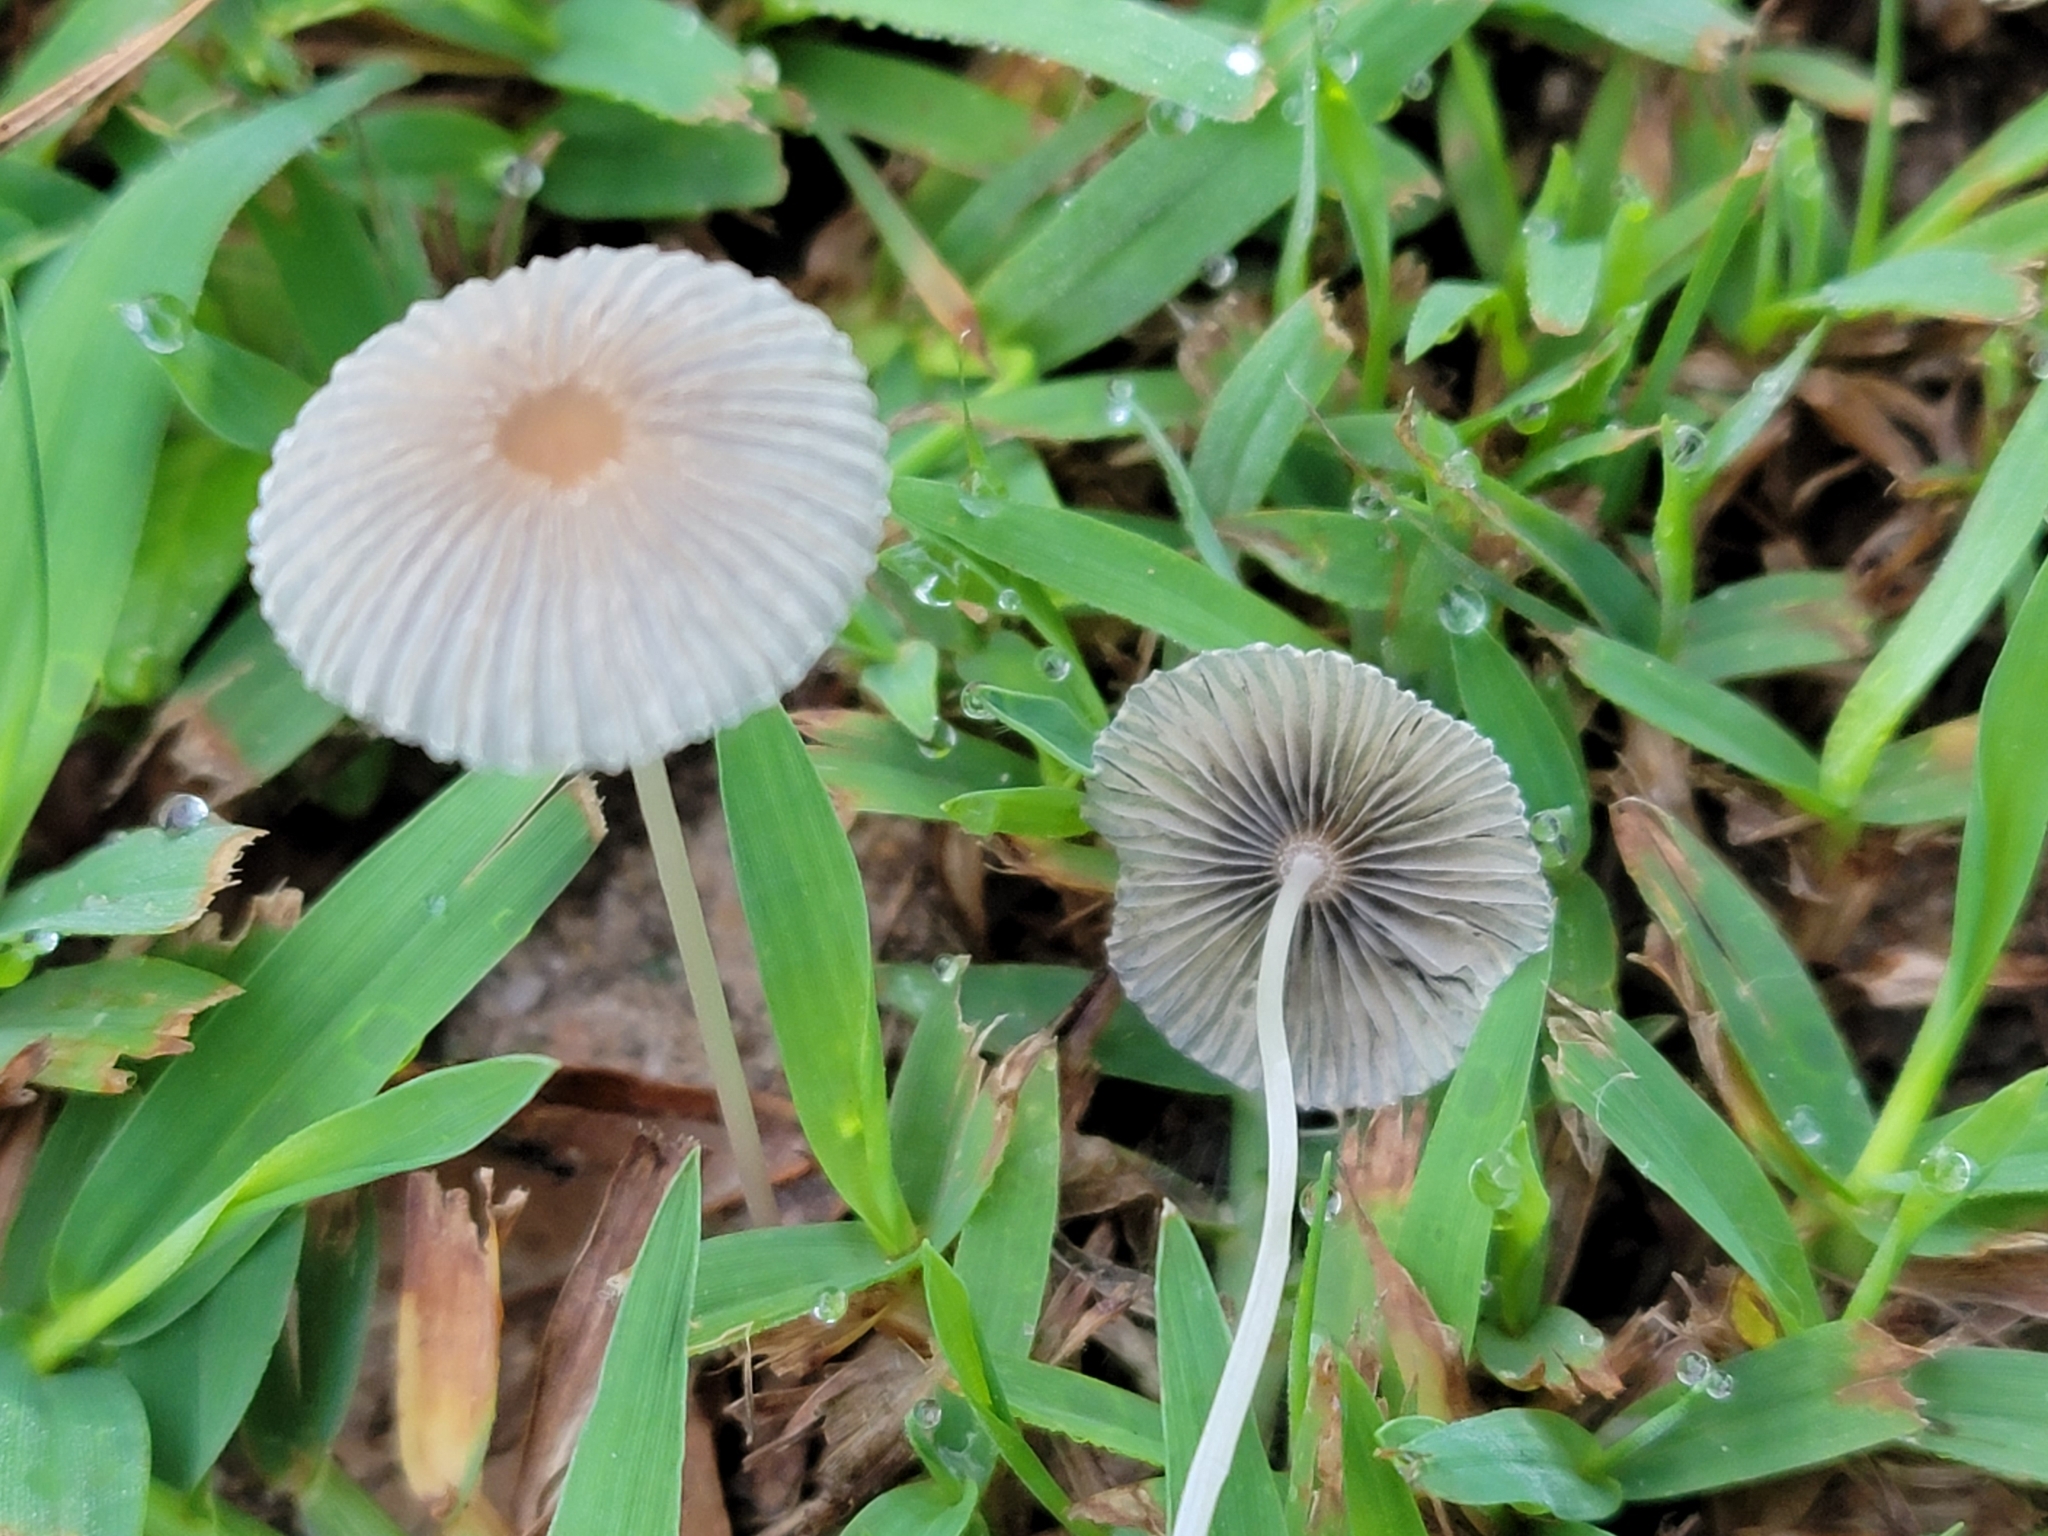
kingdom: Fungi
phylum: Basidiomycota
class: Agaricomycetes
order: Agaricales
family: Psathyrellaceae
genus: Parasola
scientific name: Parasola plicatilis
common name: Pleated inkcap
